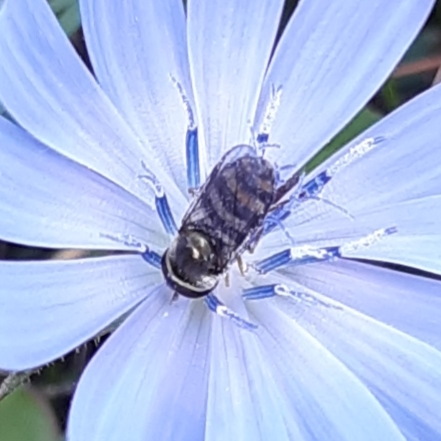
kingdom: Animalia
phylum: Arthropoda
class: Insecta
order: Diptera
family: Syrphidae
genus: Eupeodes
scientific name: Eupeodes
